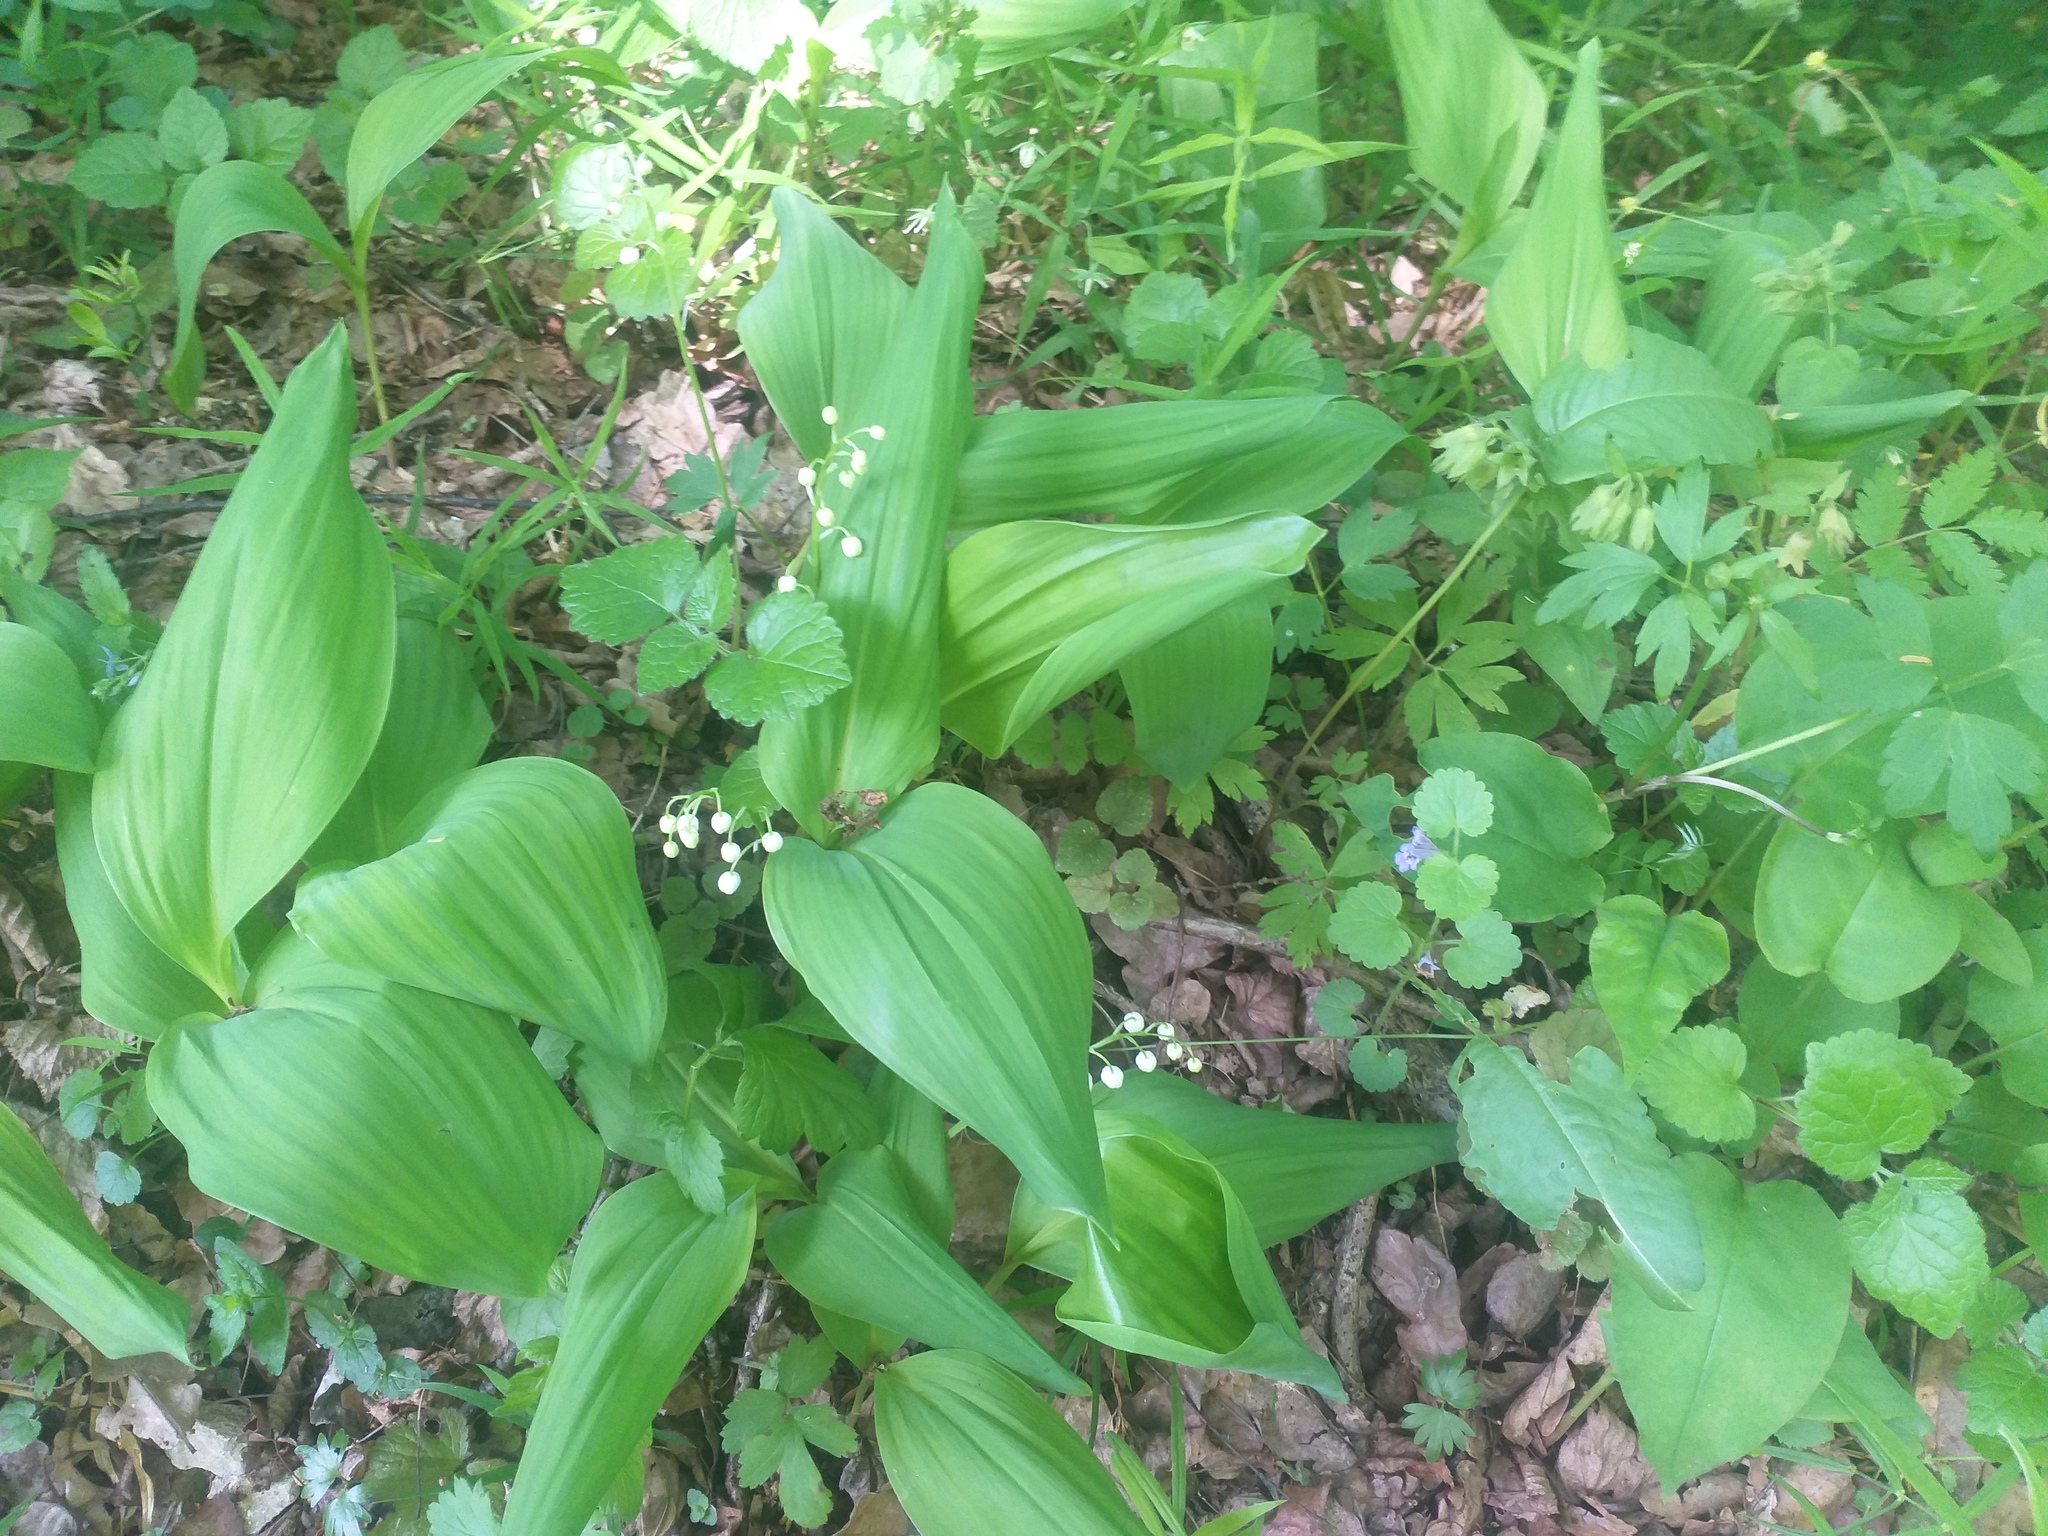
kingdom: Plantae
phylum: Tracheophyta
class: Liliopsida
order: Asparagales
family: Asparagaceae
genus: Convallaria
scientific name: Convallaria majalis
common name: Lily-of-the-valley
